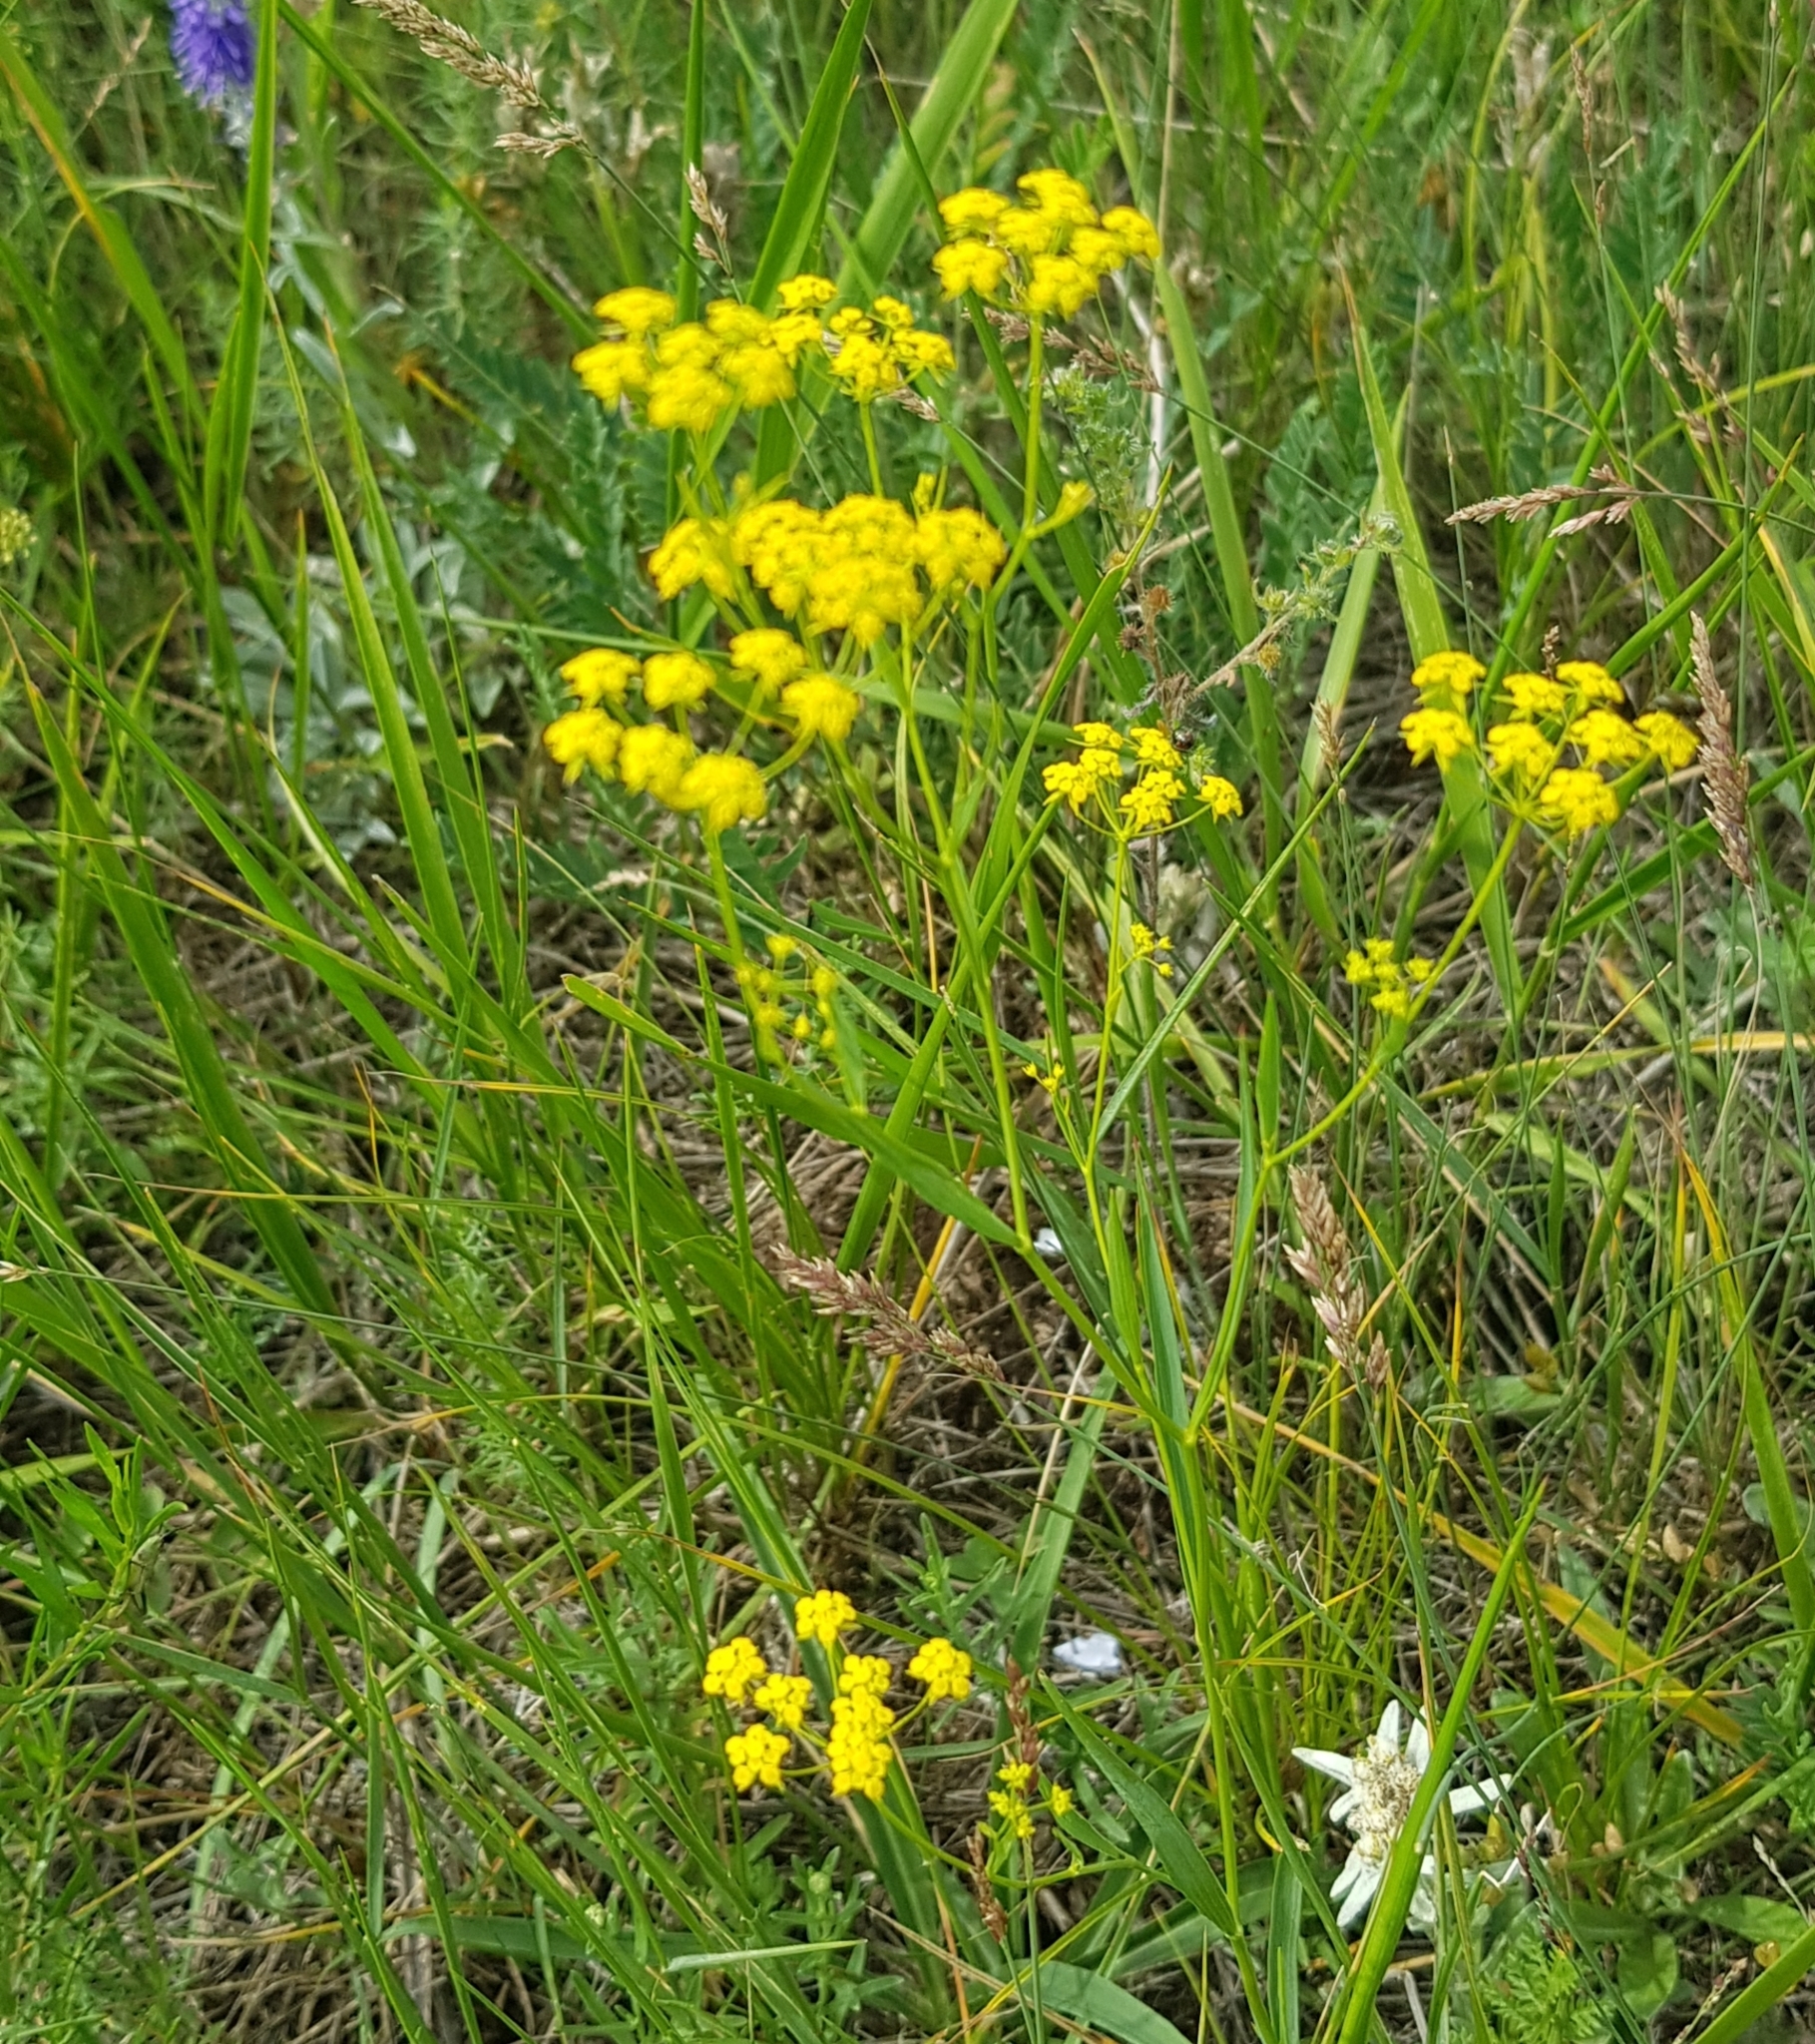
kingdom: Plantae
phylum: Tracheophyta
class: Magnoliopsida
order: Apiales
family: Apiaceae
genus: Bupleurum
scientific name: Bupleurum scorzonerifolium
